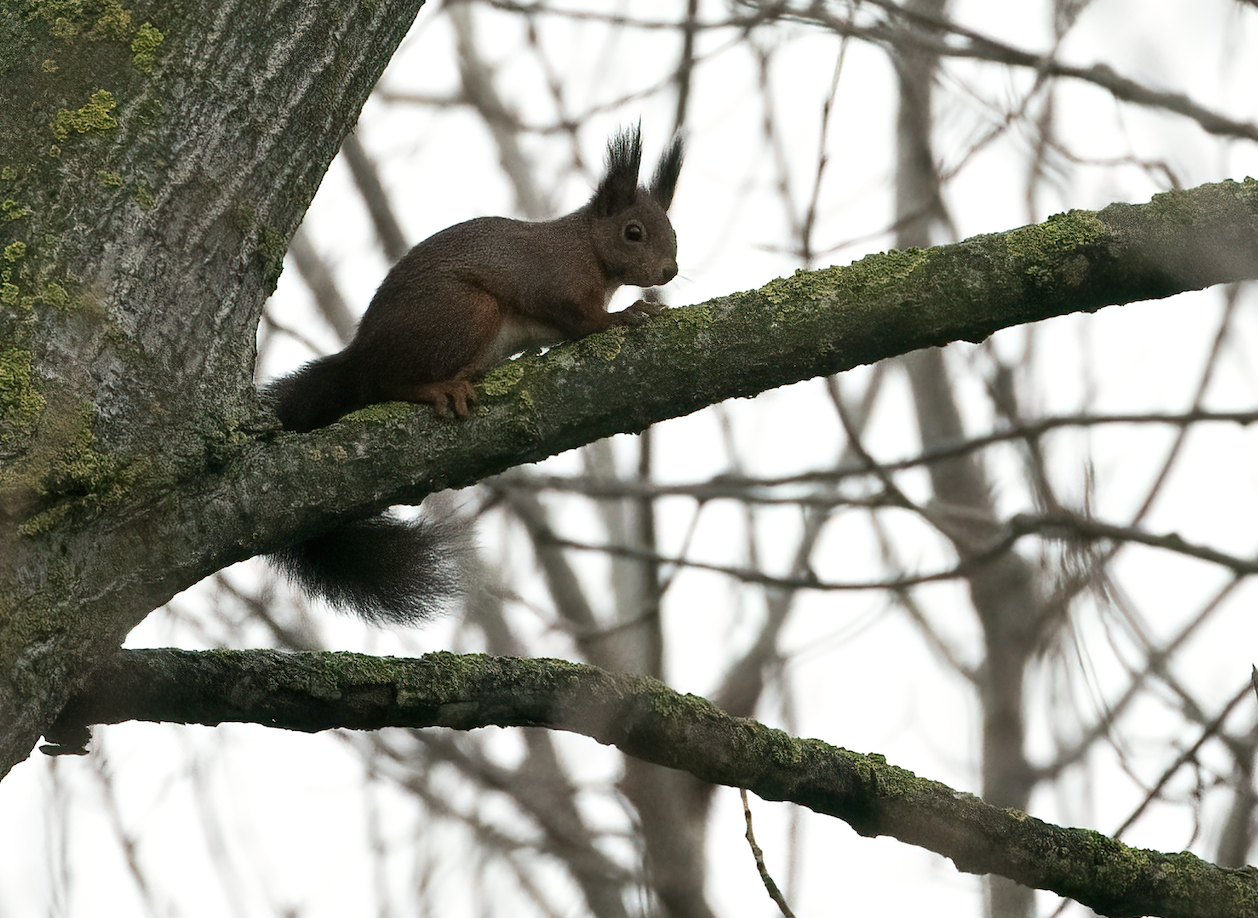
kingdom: Animalia
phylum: Chordata
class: Mammalia
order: Rodentia
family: Sciuridae
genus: Sciurus
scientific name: Sciurus vulgaris
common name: Eurasian red squirrel
